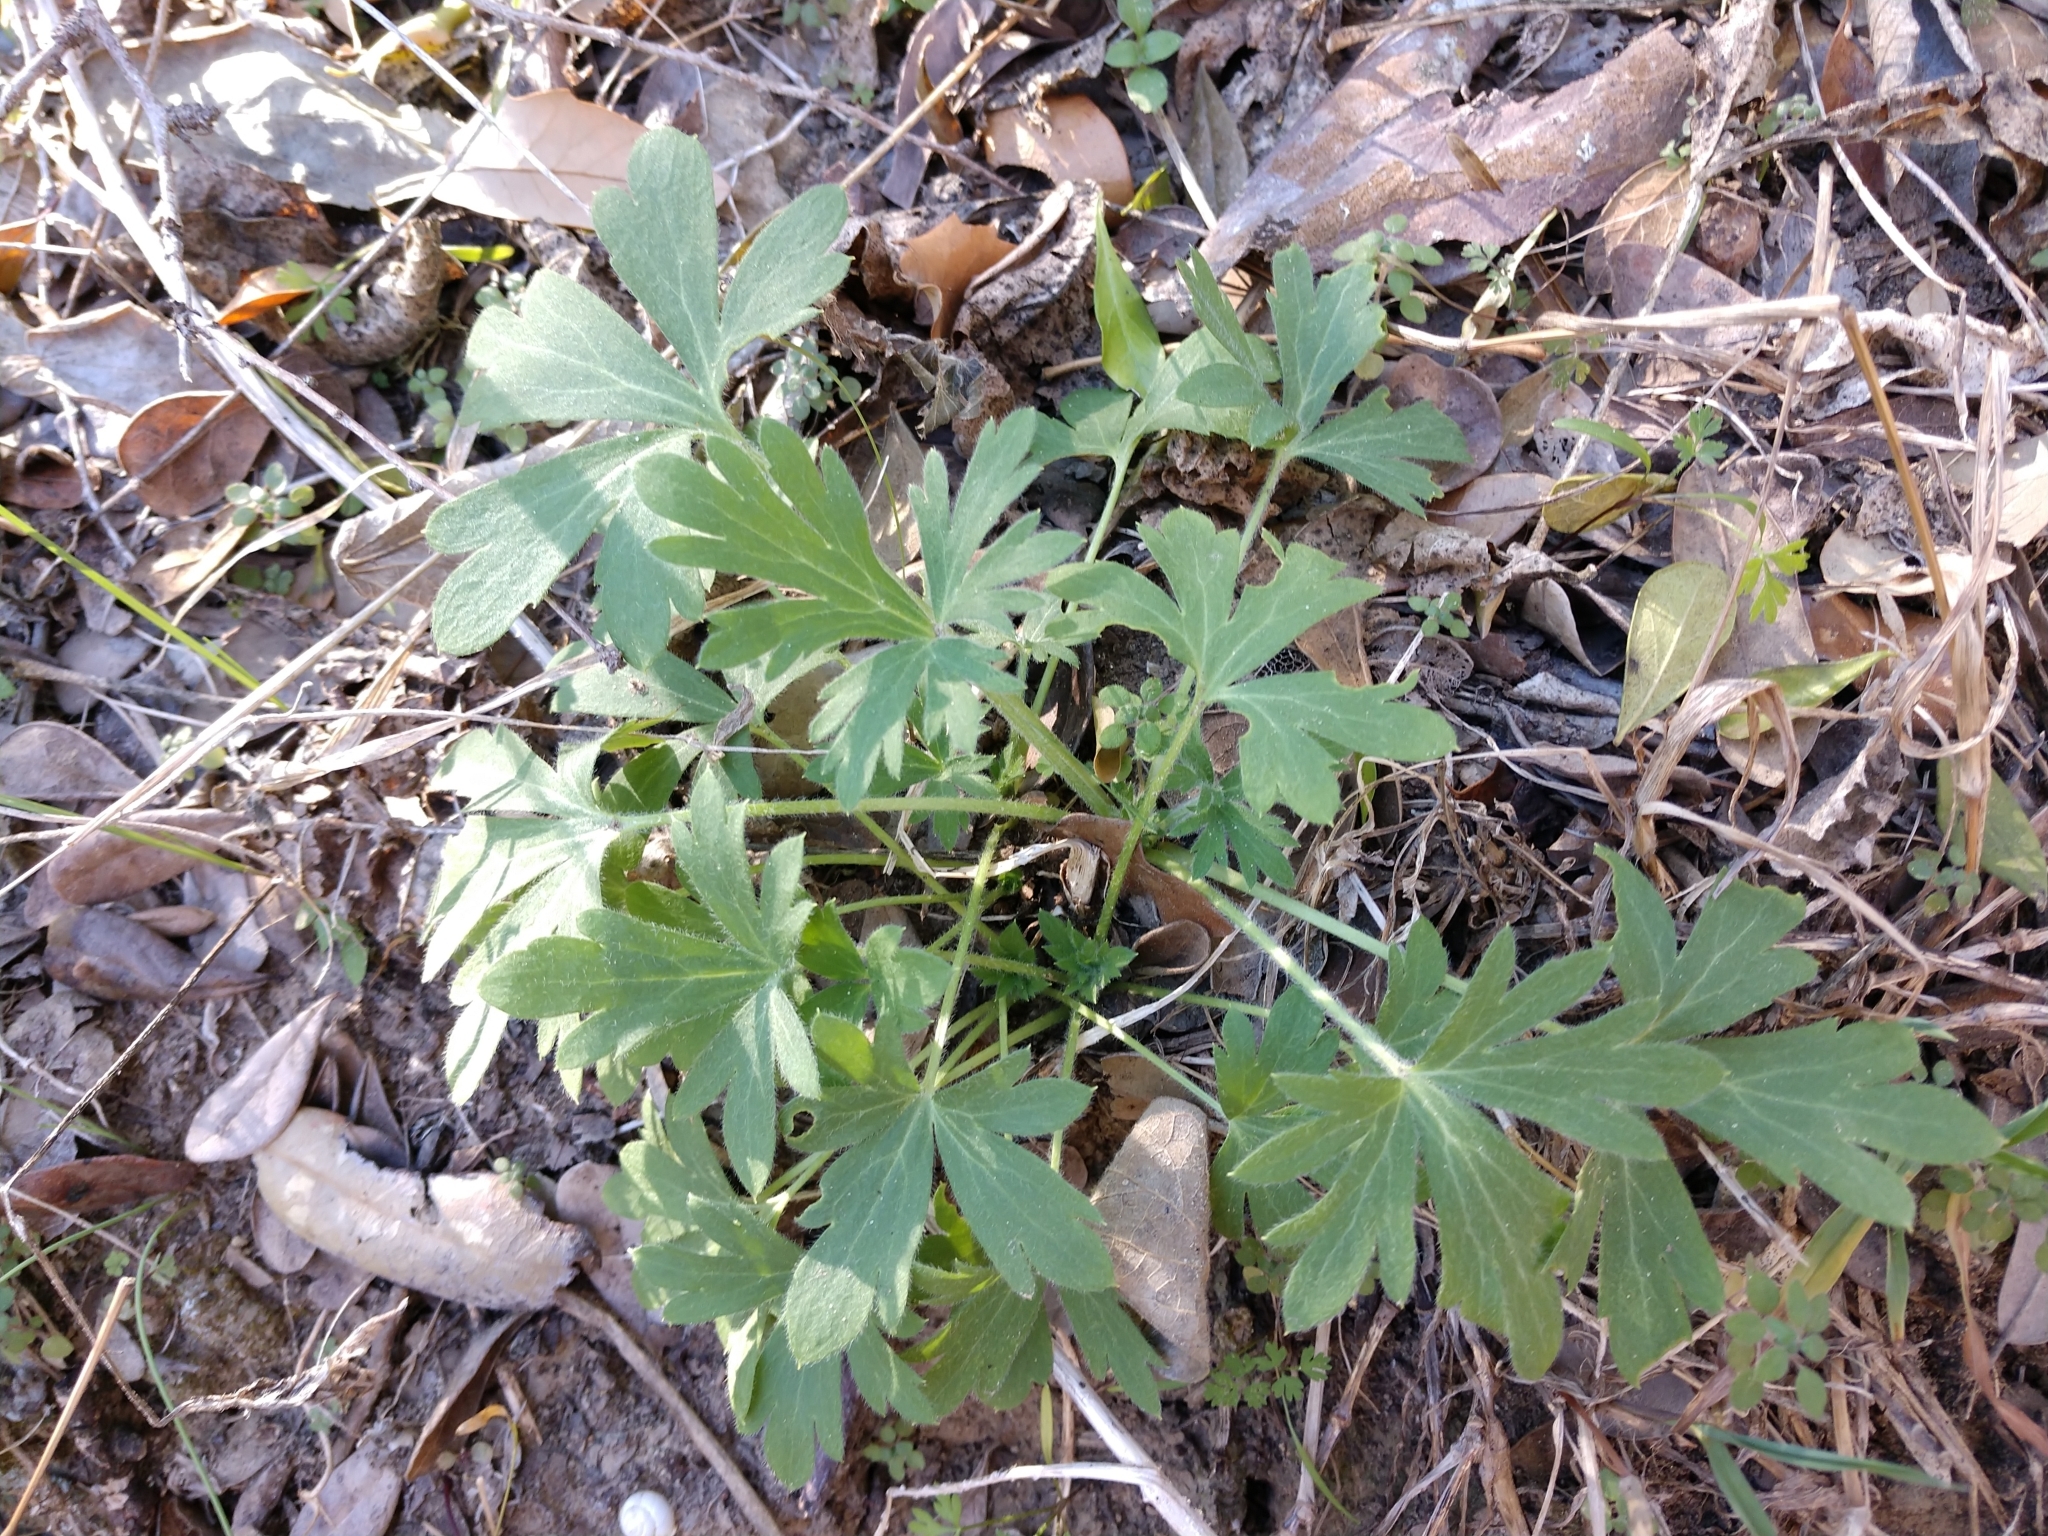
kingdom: Plantae
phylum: Tracheophyta
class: Magnoliopsida
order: Ranunculales
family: Ranunculaceae
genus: Delphinium
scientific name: Delphinium carolinianum
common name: Carolina larkspur
